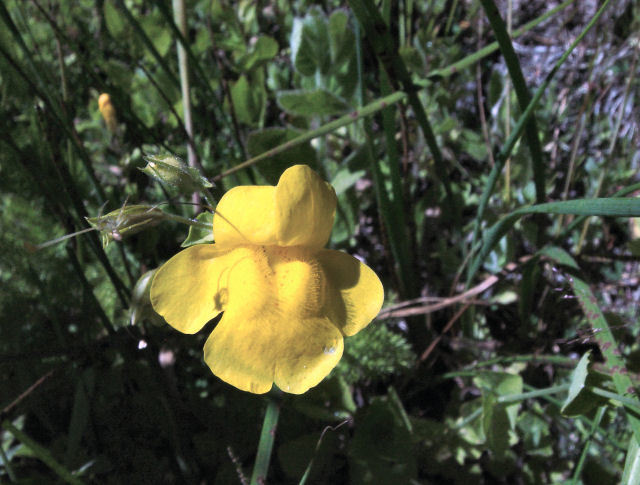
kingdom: Plantae
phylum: Tracheophyta
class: Magnoliopsida
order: Lamiales
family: Phrymaceae
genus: Erythranthe
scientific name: Erythranthe guttata
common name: Monkeyflower
